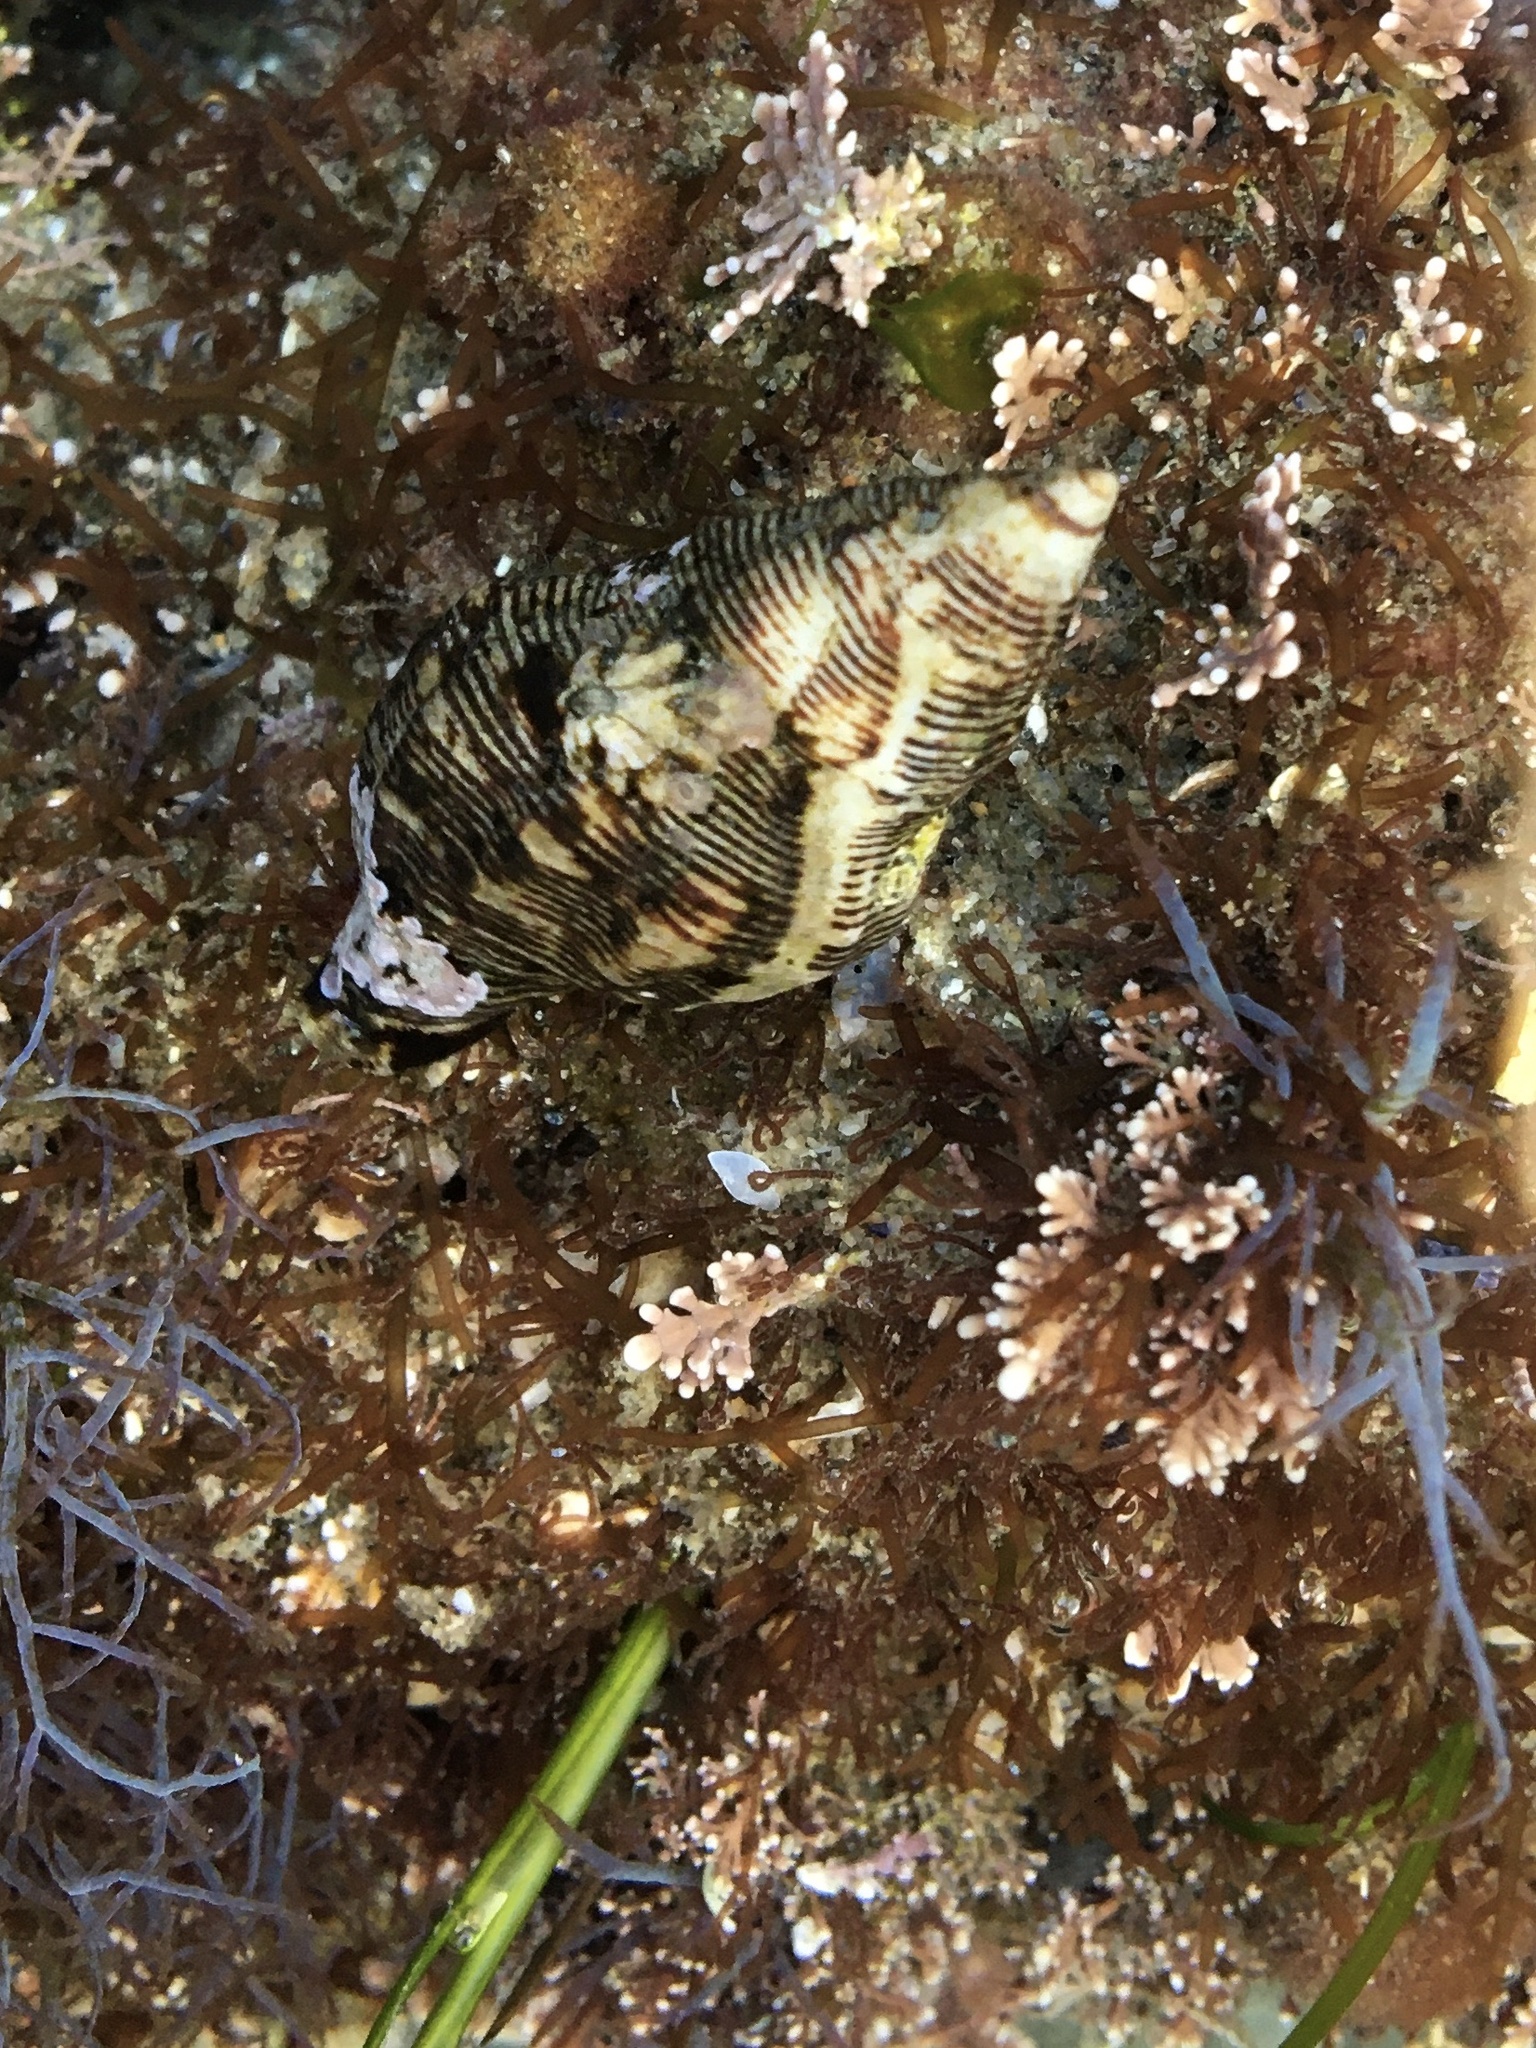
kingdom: Animalia
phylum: Mollusca
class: Gastropoda
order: Neogastropoda
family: Muricidae
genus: Roperia
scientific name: Roperia poulsoni
